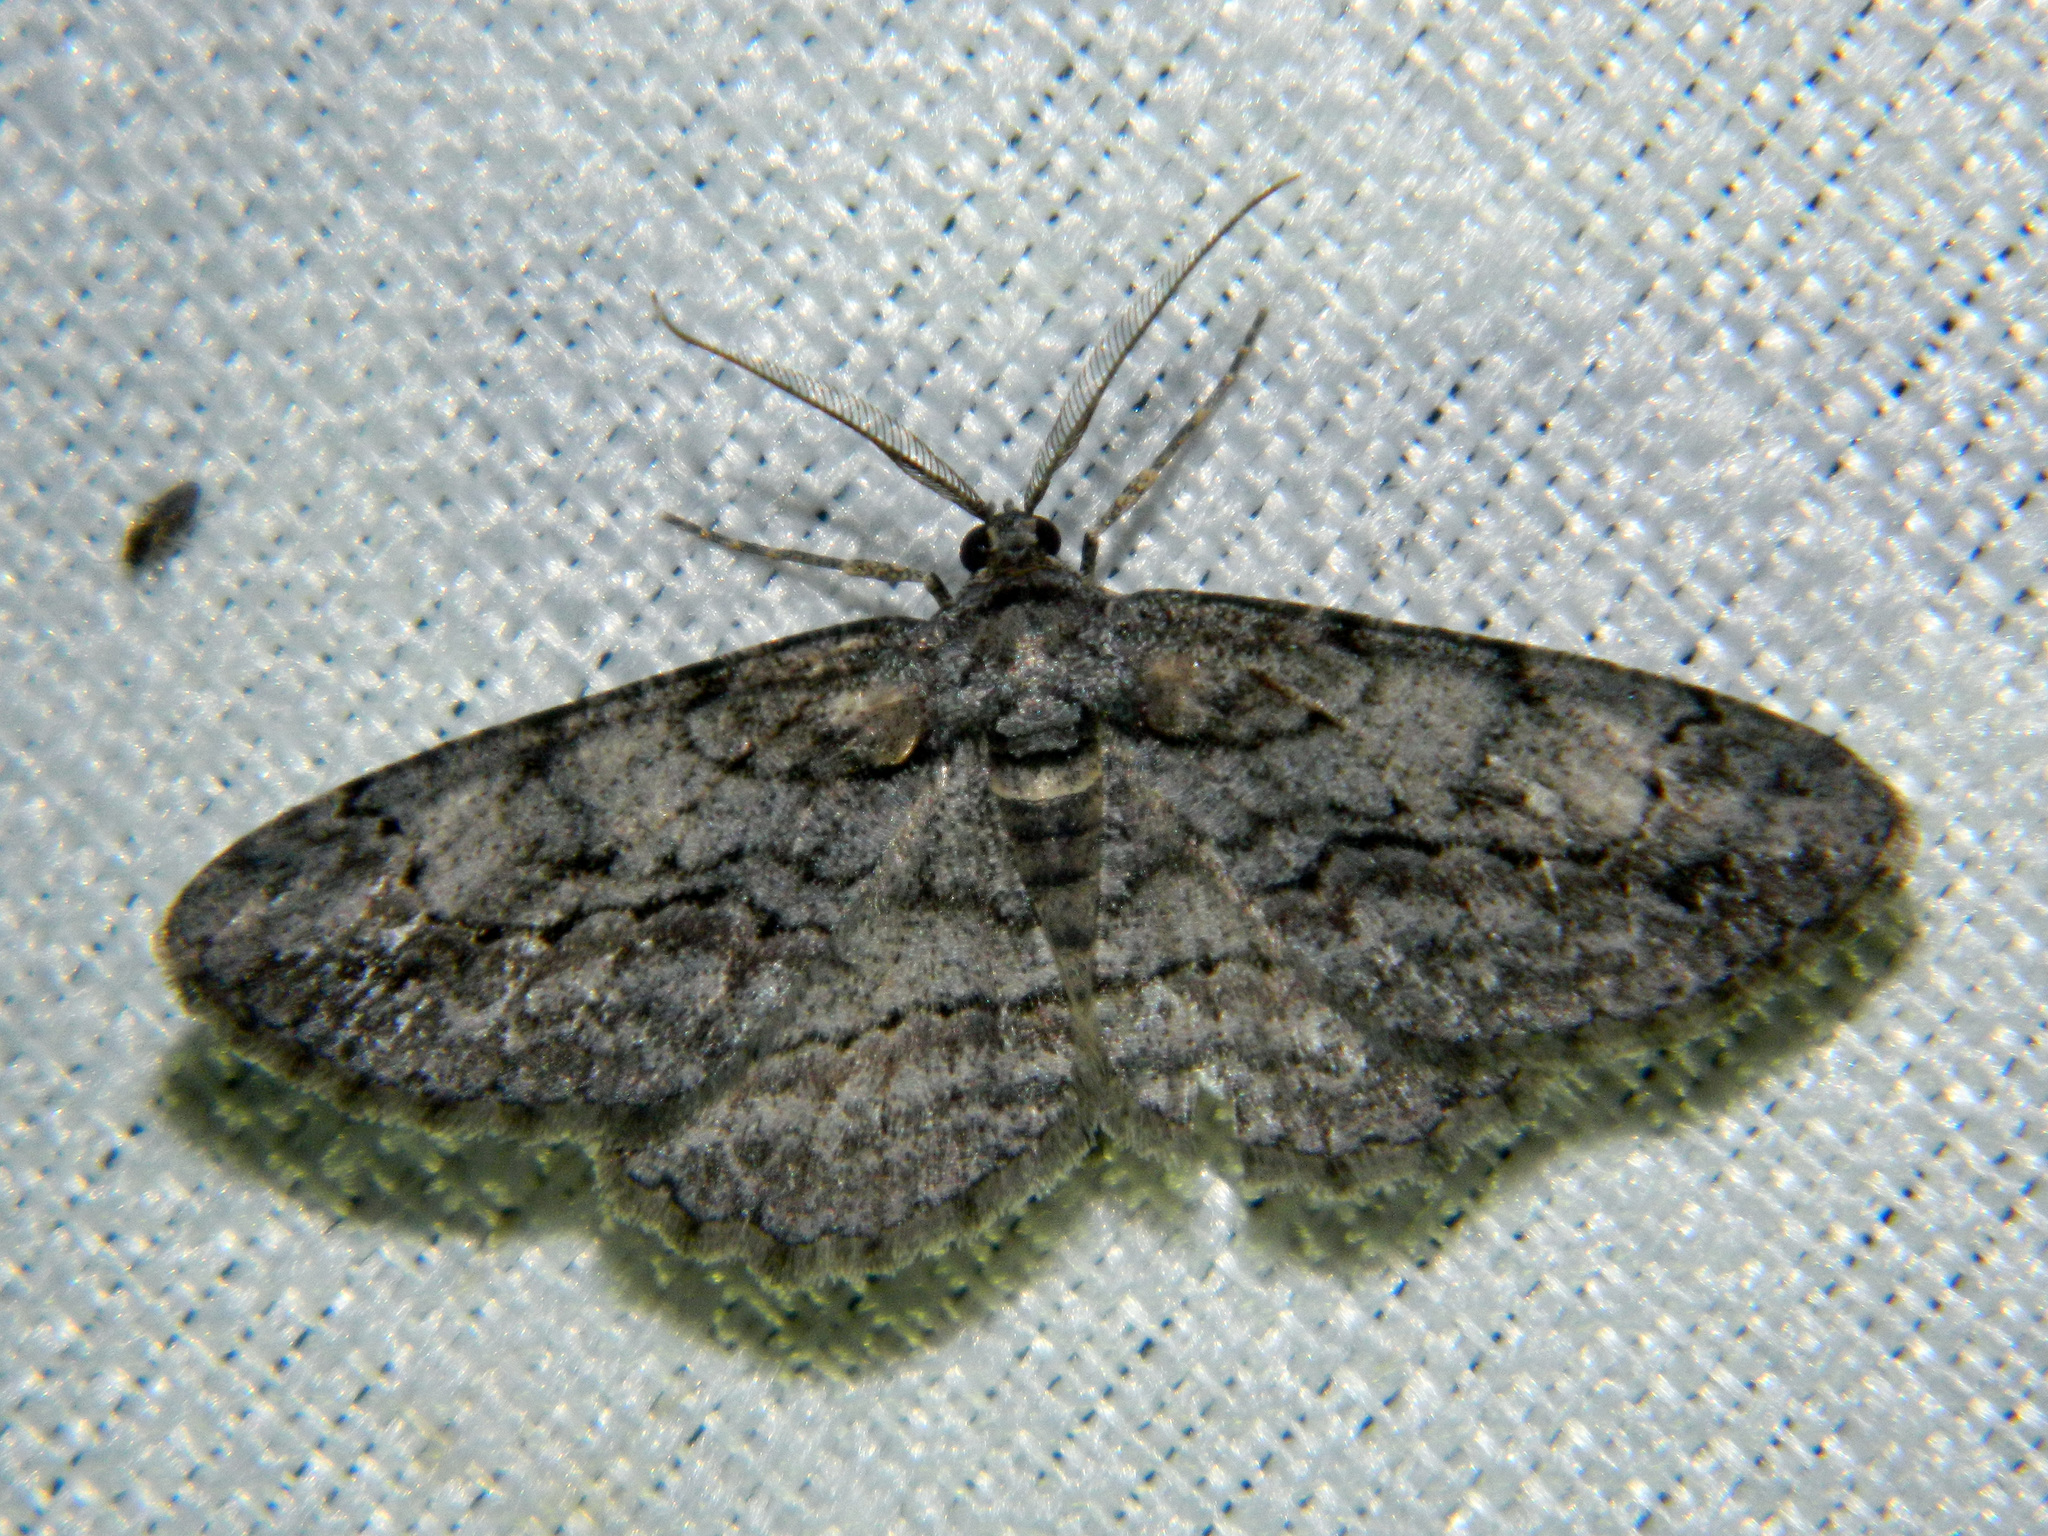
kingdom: Animalia
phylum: Arthropoda
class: Insecta
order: Lepidoptera
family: Geometridae
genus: Anavitrinella
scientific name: Anavitrinella pampinaria
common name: Common gray
